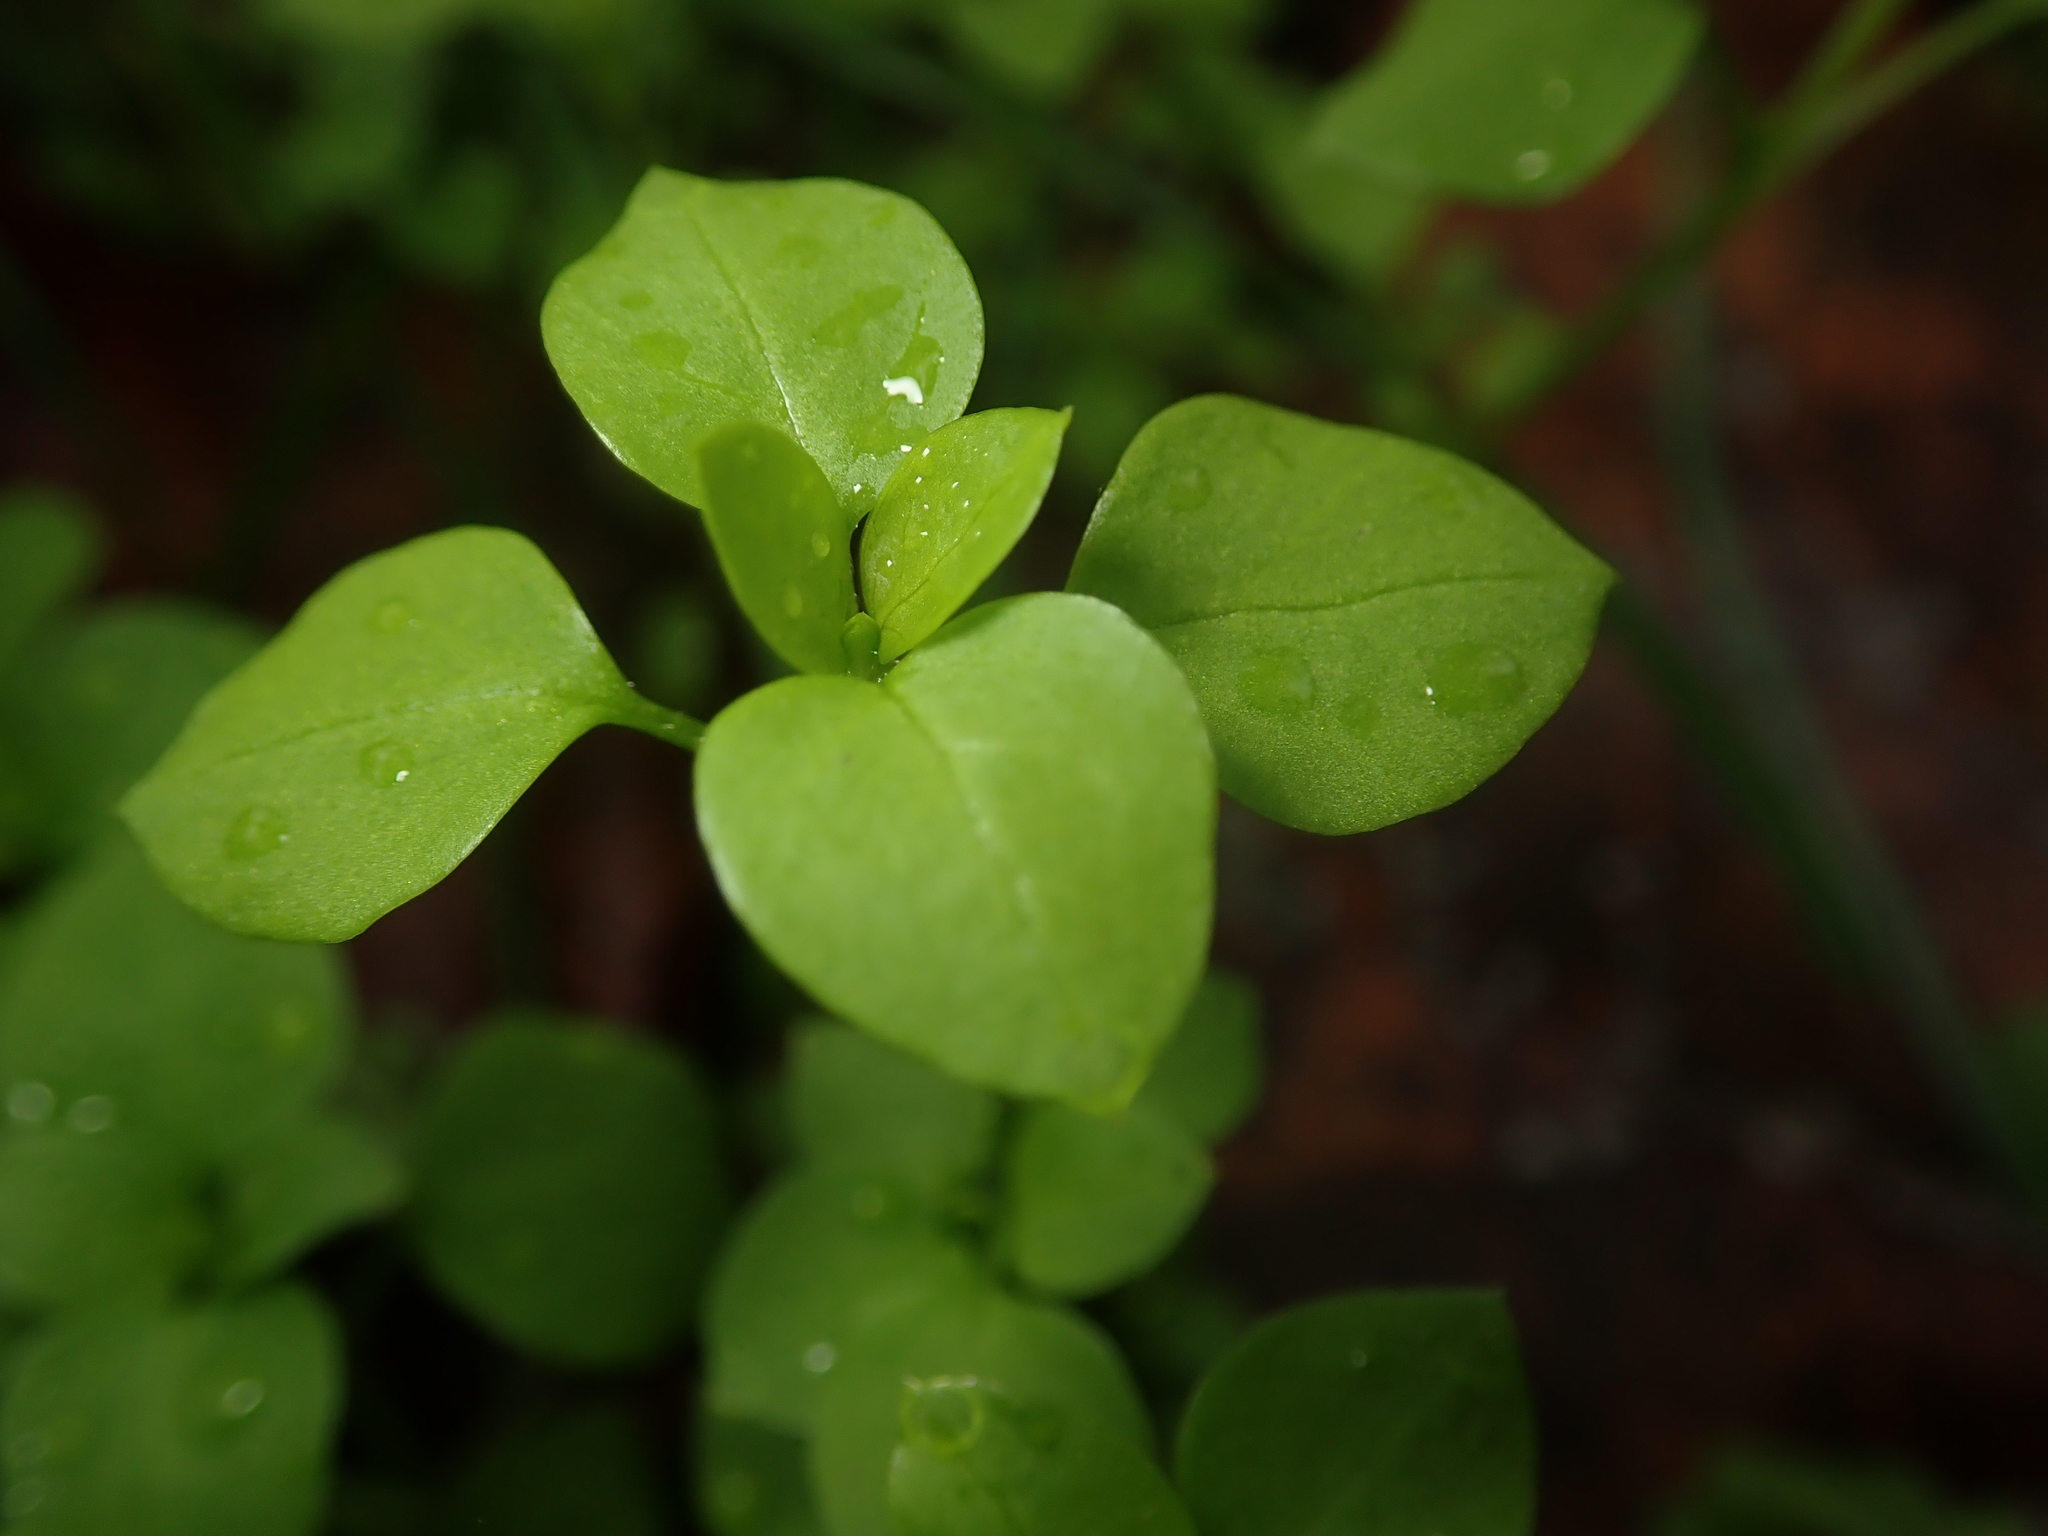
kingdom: Plantae
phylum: Tracheophyta
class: Magnoliopsida
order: Caryophyllales
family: Caryophyllaceae
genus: Stellaria
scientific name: Stellaria media
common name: Common chickweed
